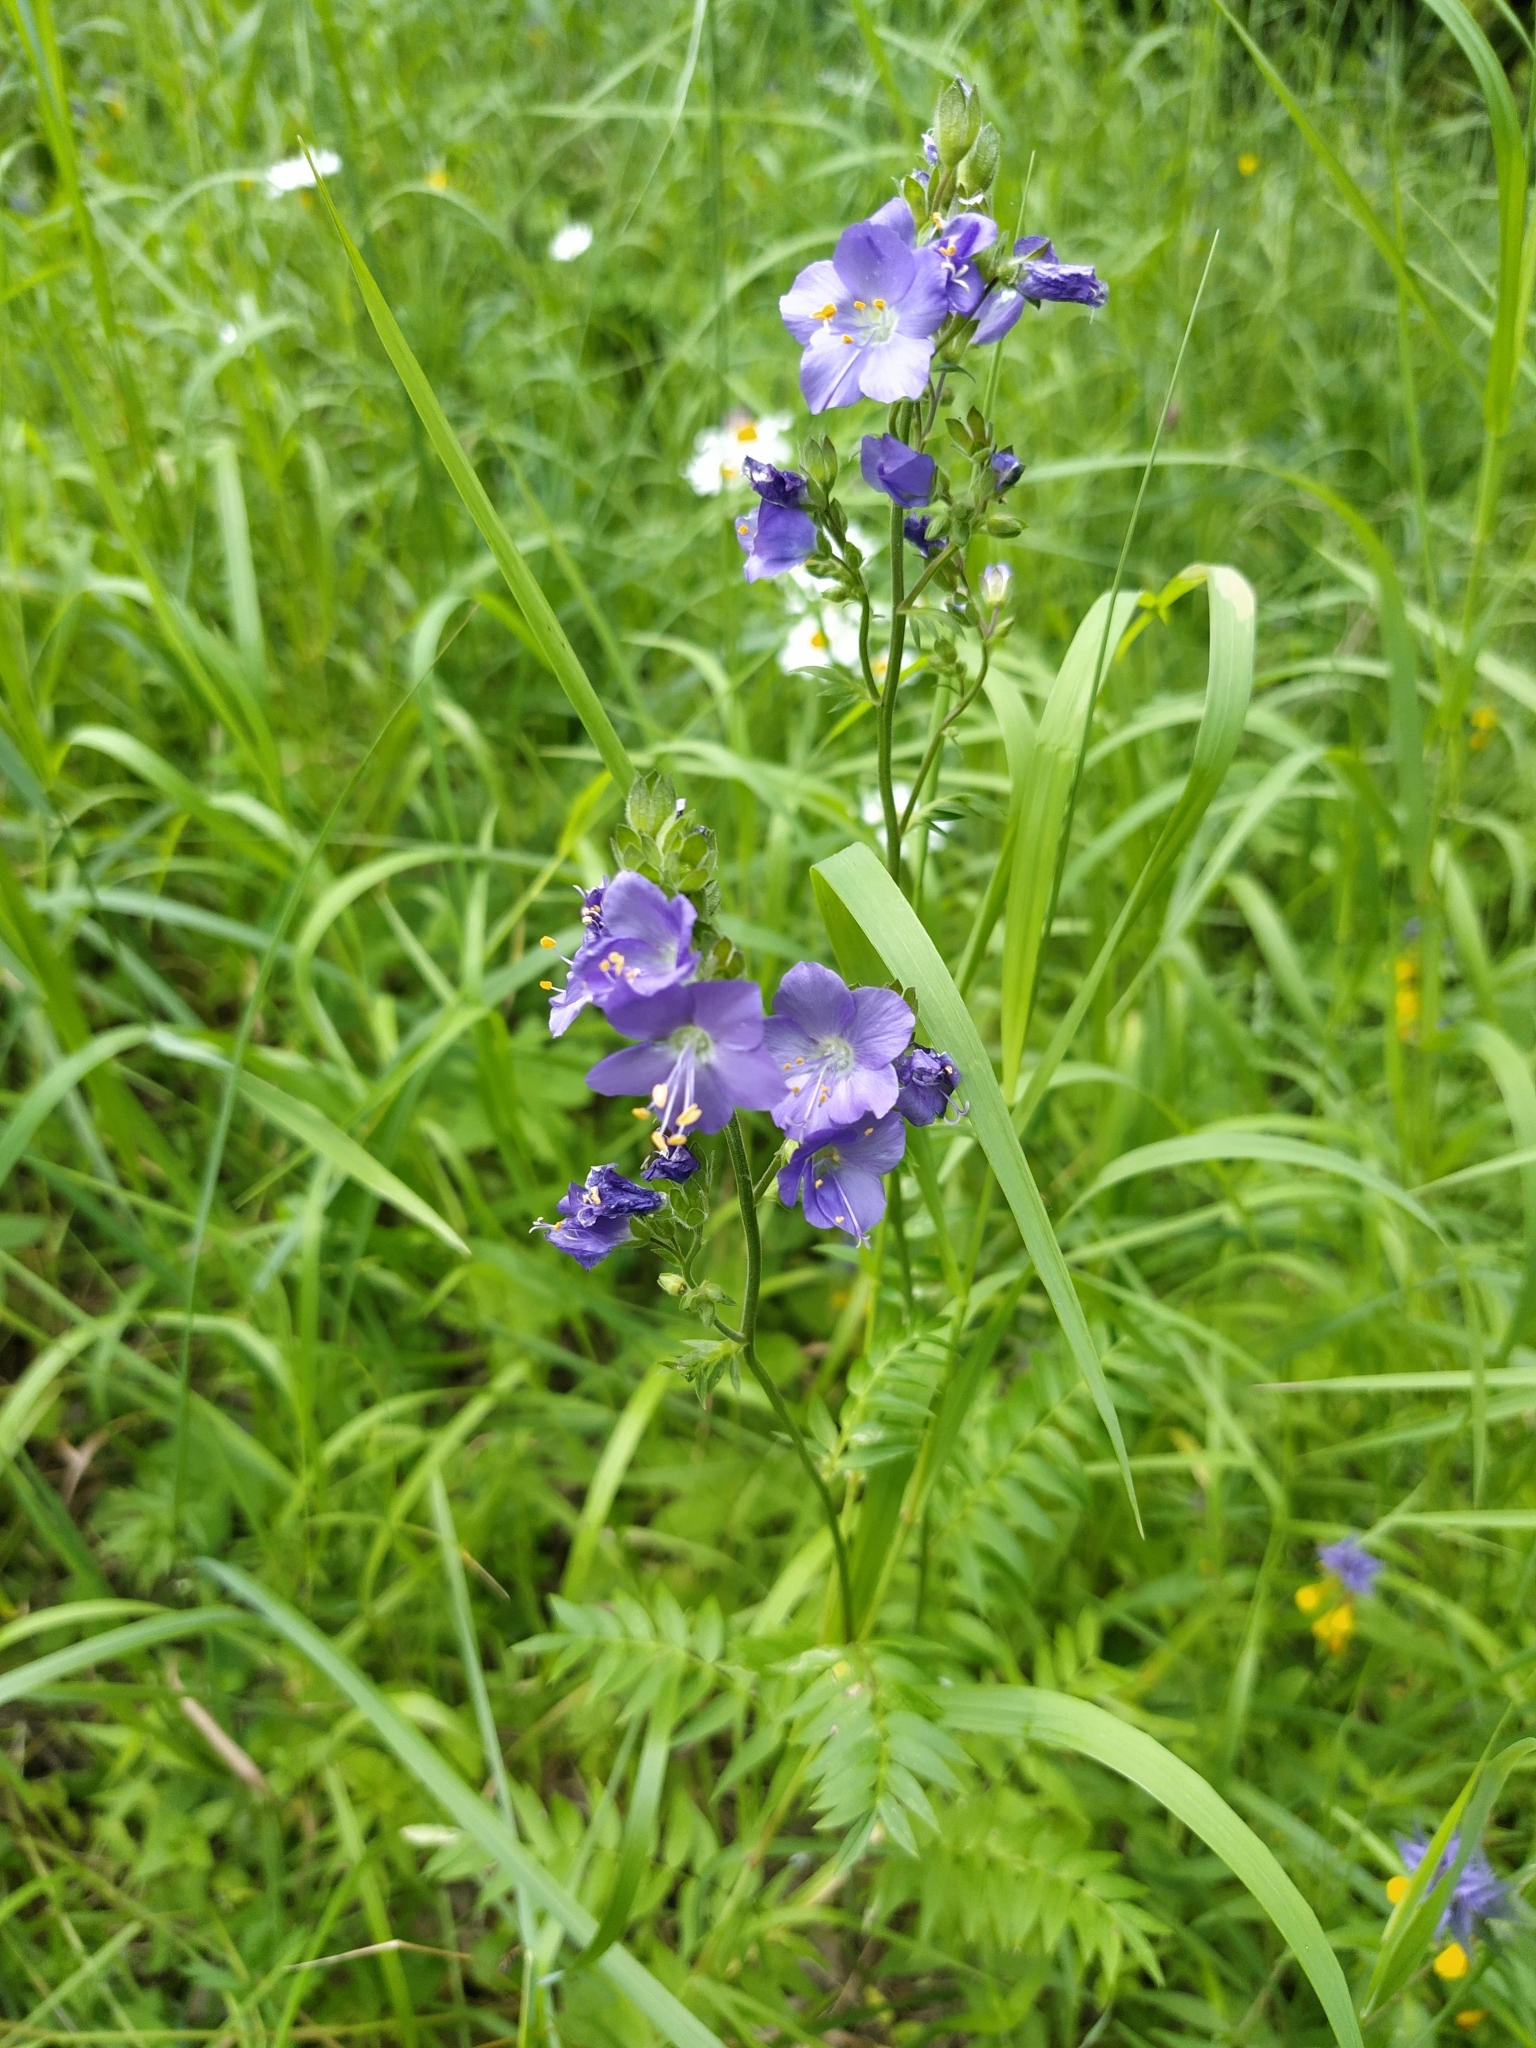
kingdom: Plantae
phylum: Tracheophyta
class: Magnoliopsida
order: Ericales
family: Polemoniaceae
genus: Polemonium
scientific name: Polemonium caeruleum
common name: Jacob's-ladder
